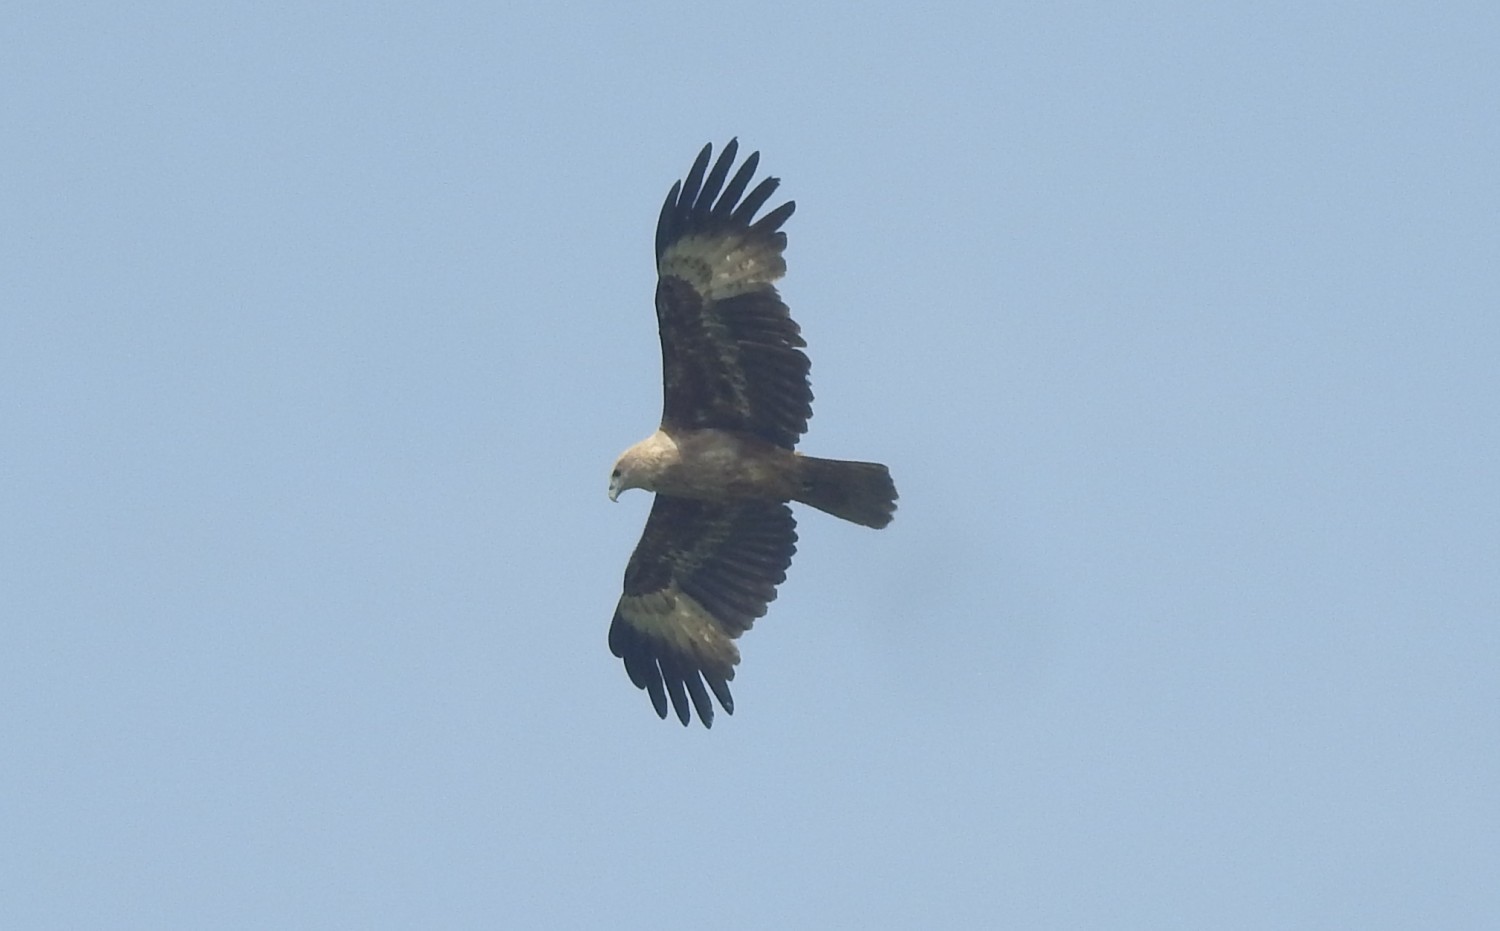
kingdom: Animalia
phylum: Chordata
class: Aves
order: Accipitriformes
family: Accipitridae
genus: Haliastur
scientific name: Haliastur indus
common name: Brahminy kite
